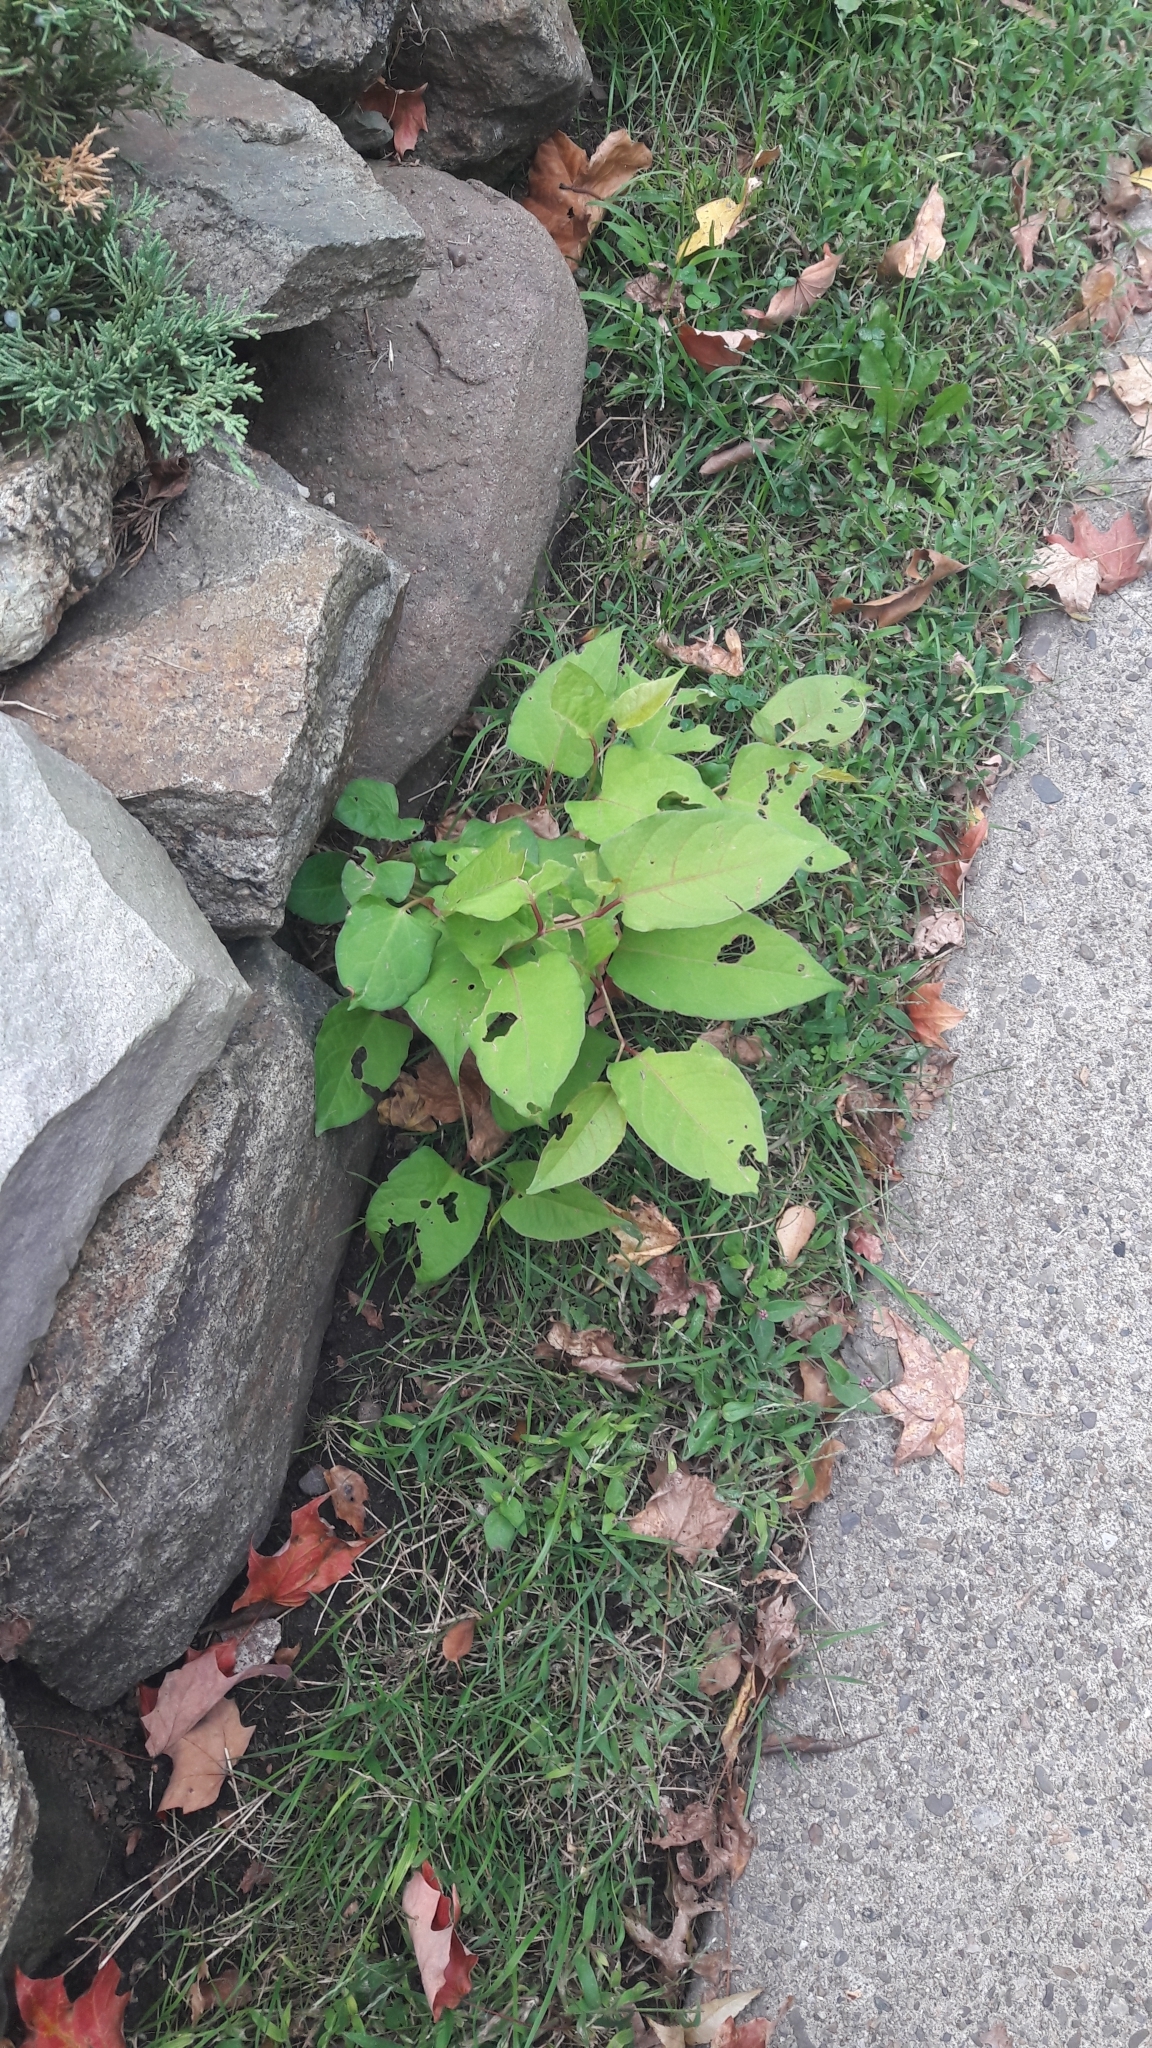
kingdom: Plantae
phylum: Tracheophyta
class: Magnoliopsida
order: Caryophyllales
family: Polygonaceae
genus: Reynoutria
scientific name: Reynoutria japonica
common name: Japanese knotweed
